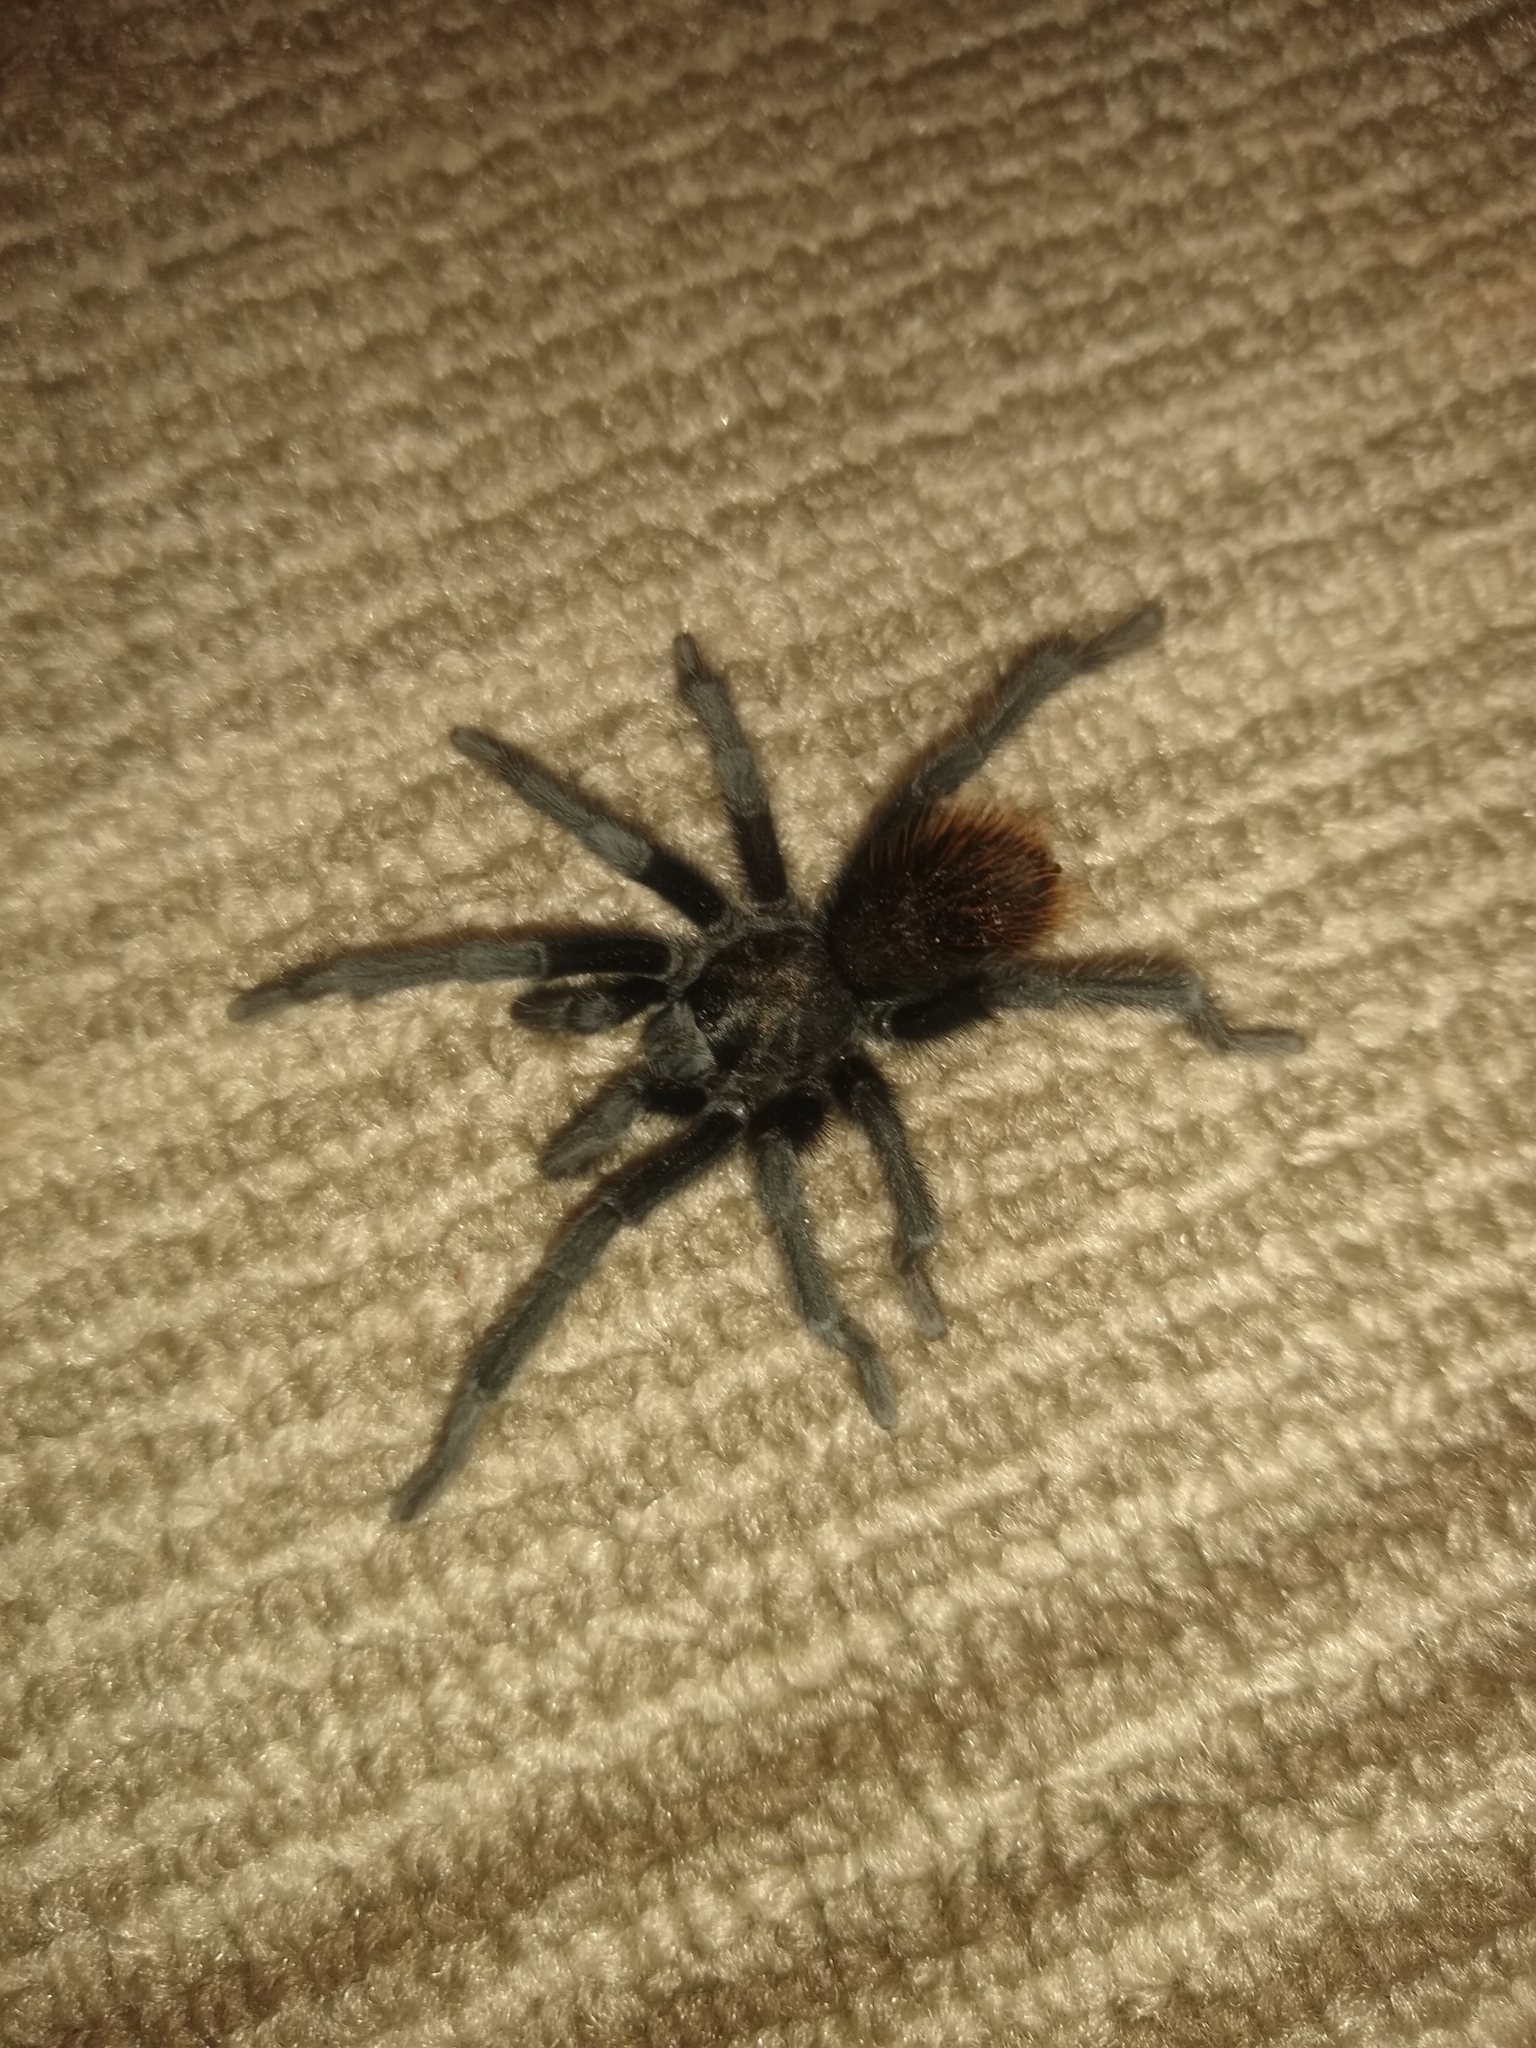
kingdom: Animalia
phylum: Arthropoda
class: Arachnida
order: Araneae
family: Theraphosidae
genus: Aphonopelma
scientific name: Aphonopelma marxi
